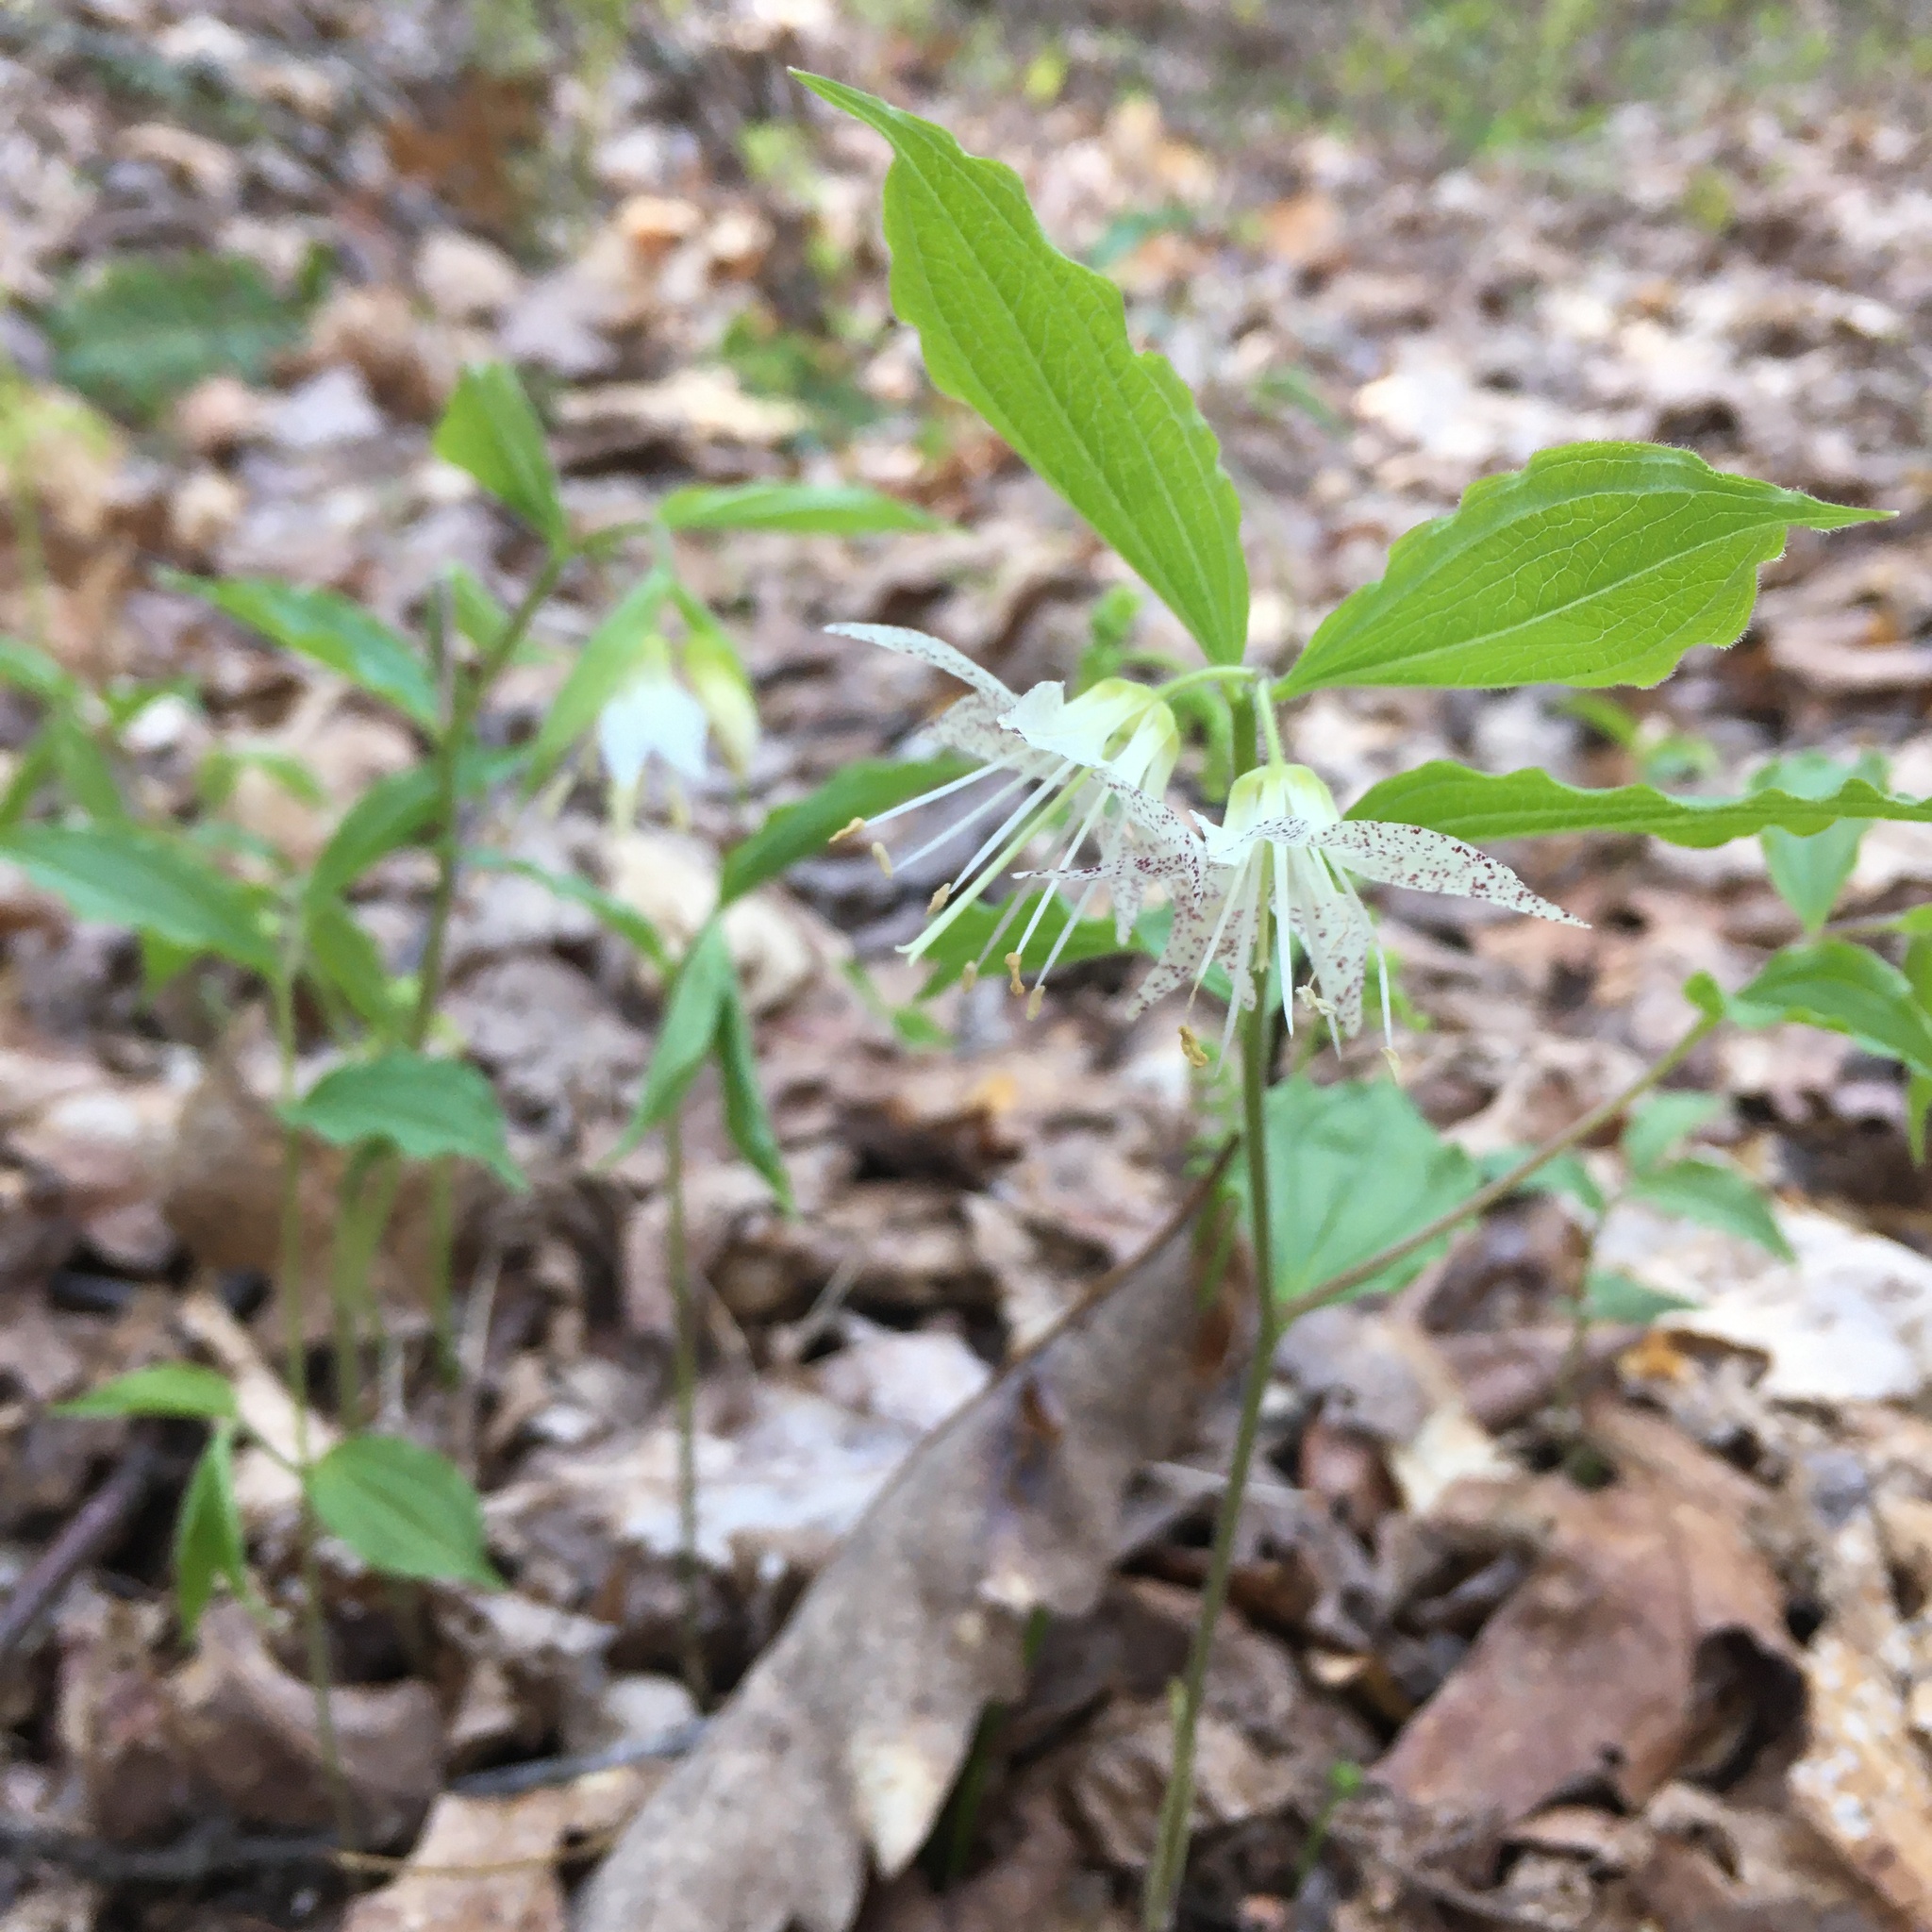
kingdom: Plantae
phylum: Tracheophyta
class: Liliopsida
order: Liliales
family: Liliaceae
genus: Prosartes
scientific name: Prosartes maculata
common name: Yellow mandarin
